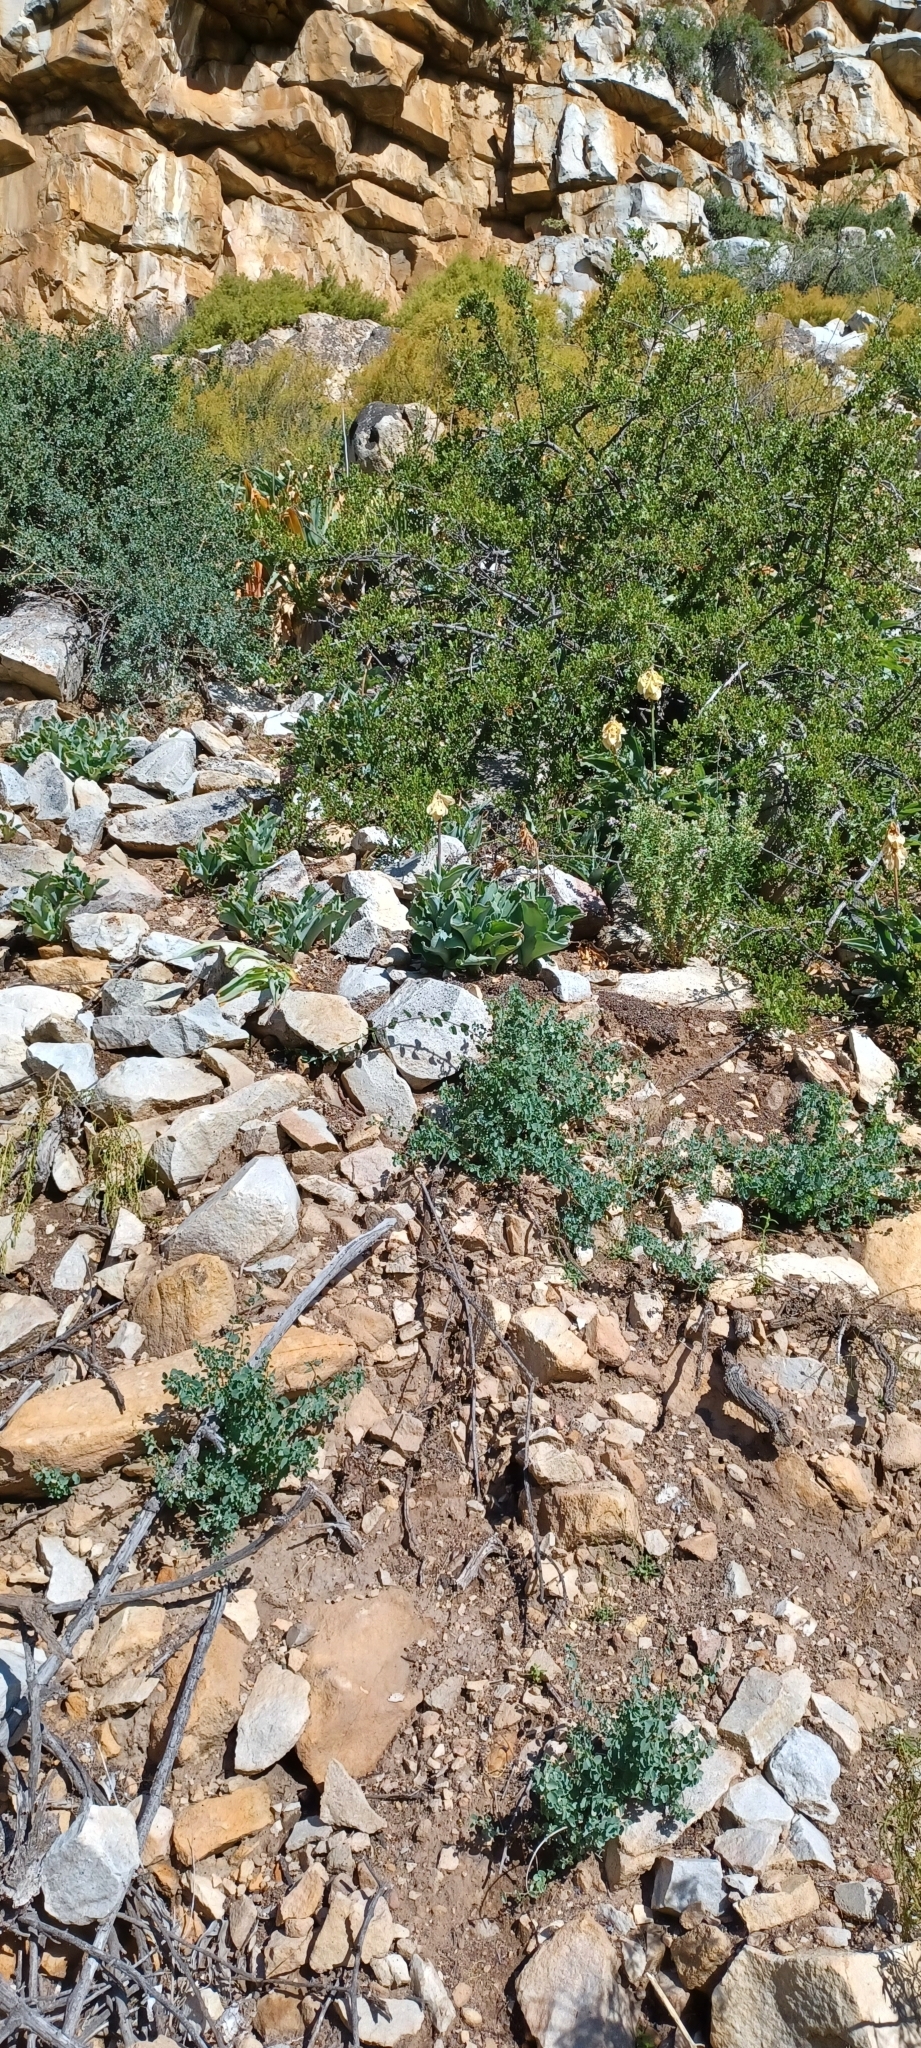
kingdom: Plantae
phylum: Tracheophyta
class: Liliopsida
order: Asparagales
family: Asparagaceae
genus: Veltheimia
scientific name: Veltheimia capensis
